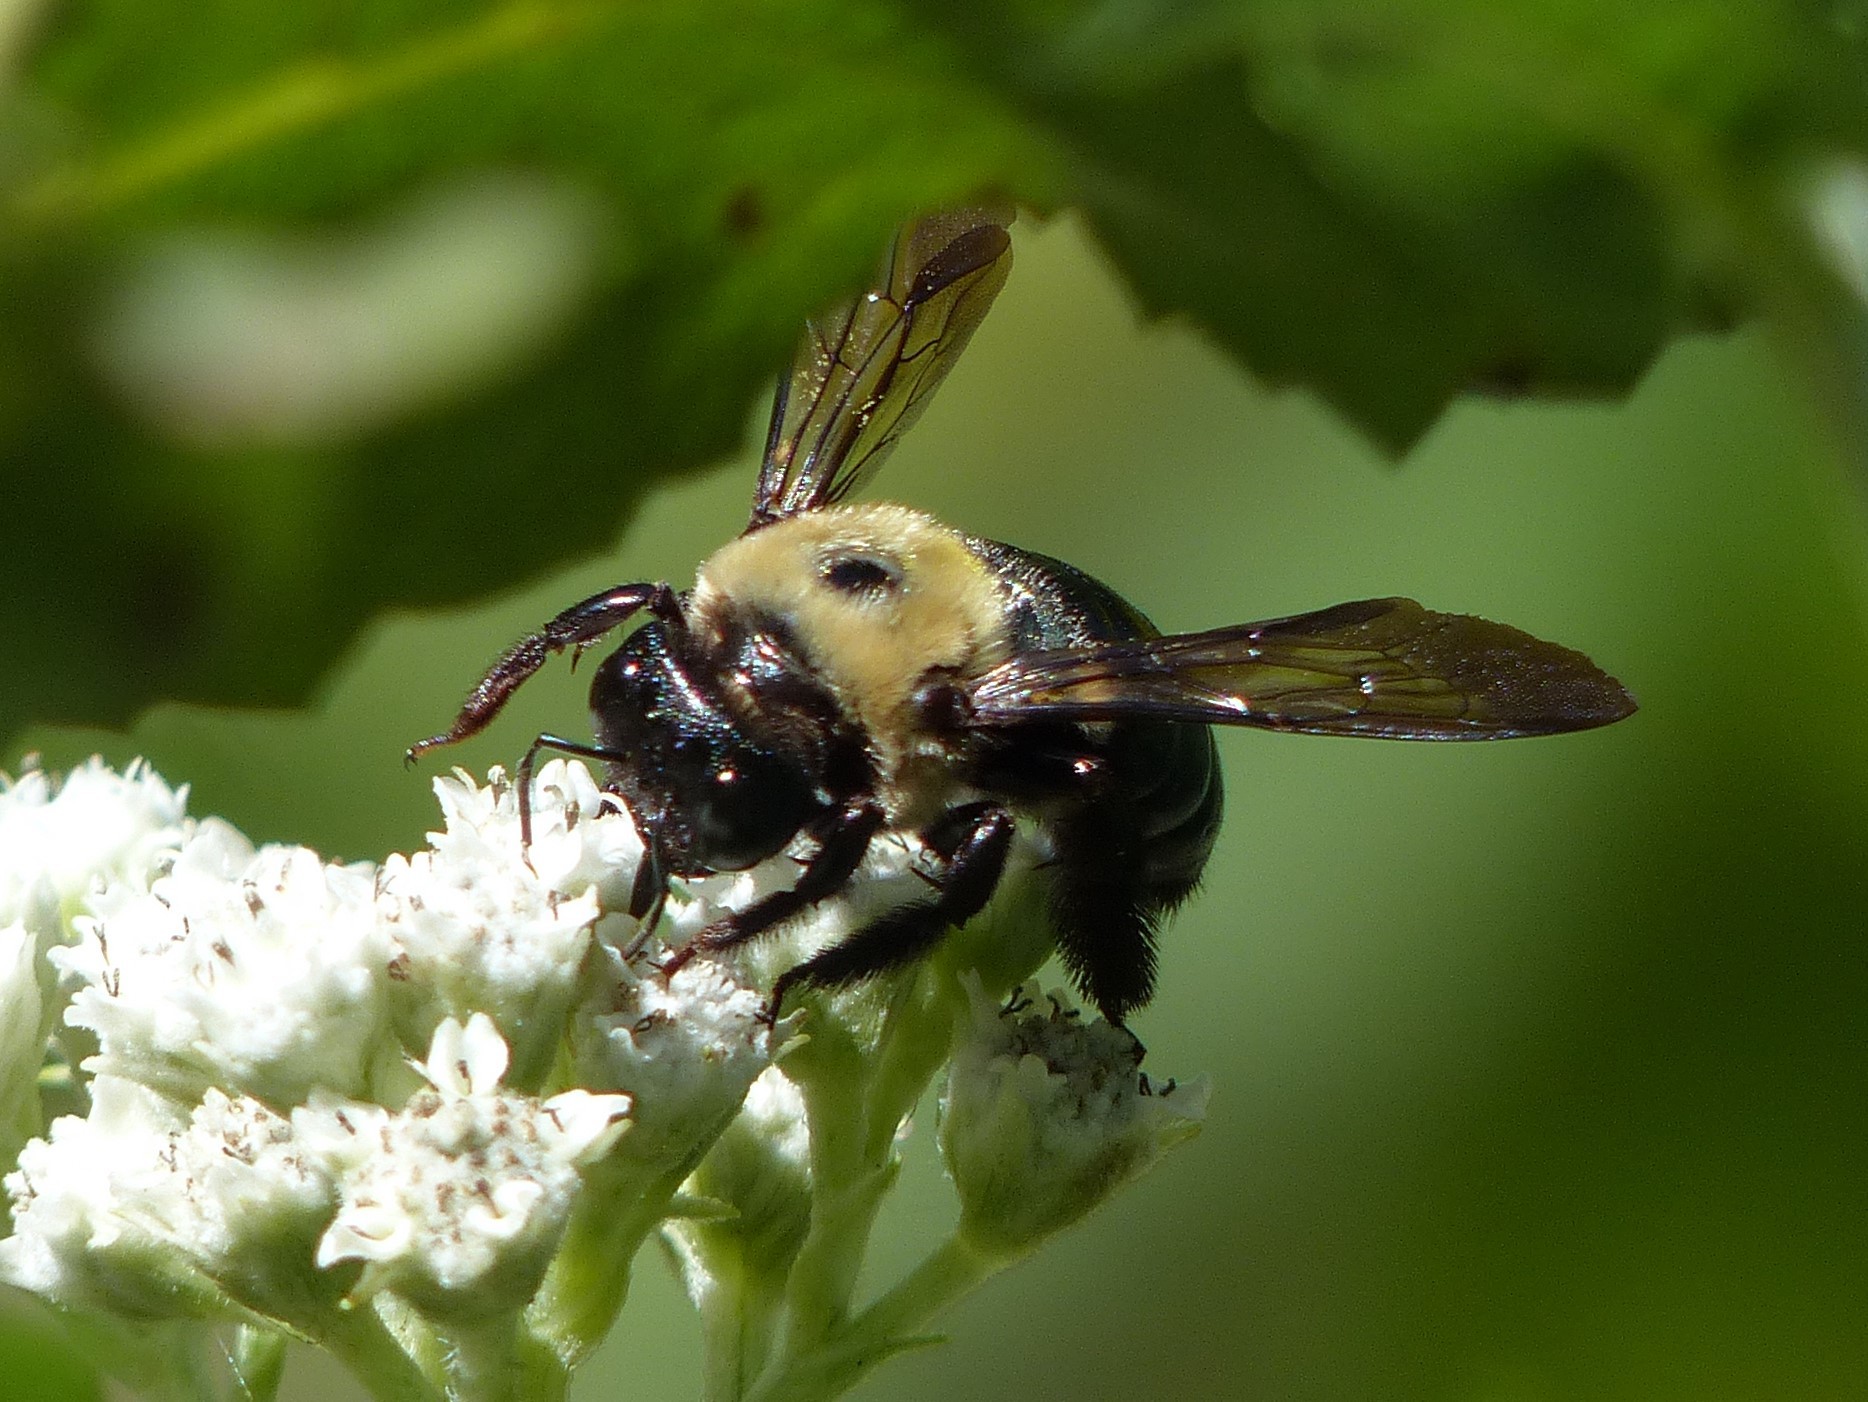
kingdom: Animalia
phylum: Arthropoda
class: Insecta
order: Hymenoptera
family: Apidae
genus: Xylocopa
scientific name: Xylocopa virginica
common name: Carpenter bee
